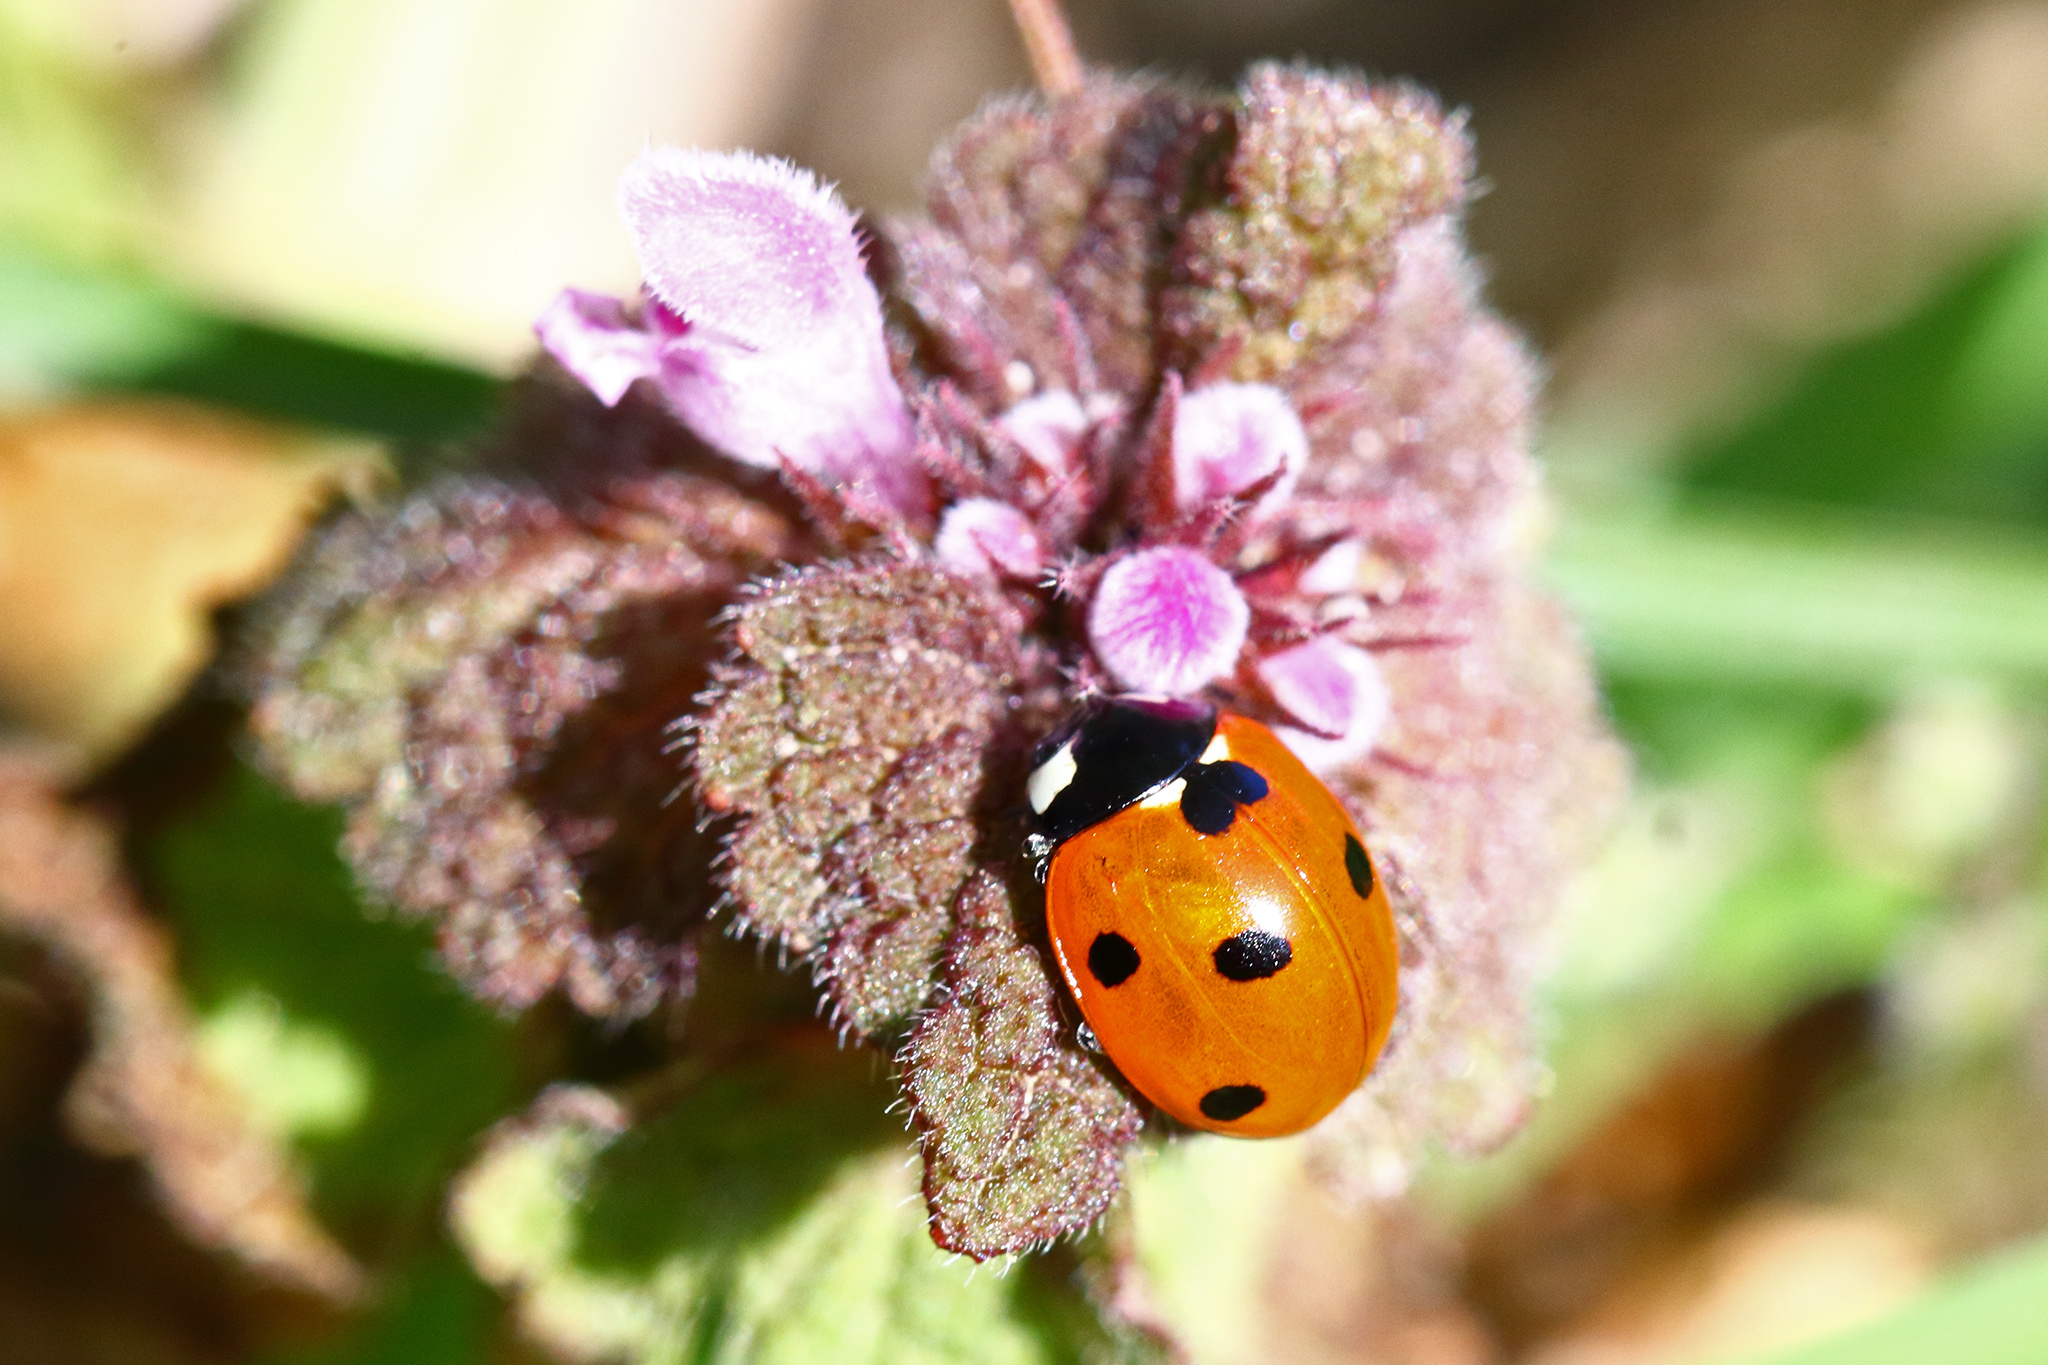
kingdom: Animalia
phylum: Arthropoda
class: Insecta
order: Coleoptera
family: Coccinellidae
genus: Coccinella
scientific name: Coccinella septempunctata
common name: Sevenspotted lady beetle
